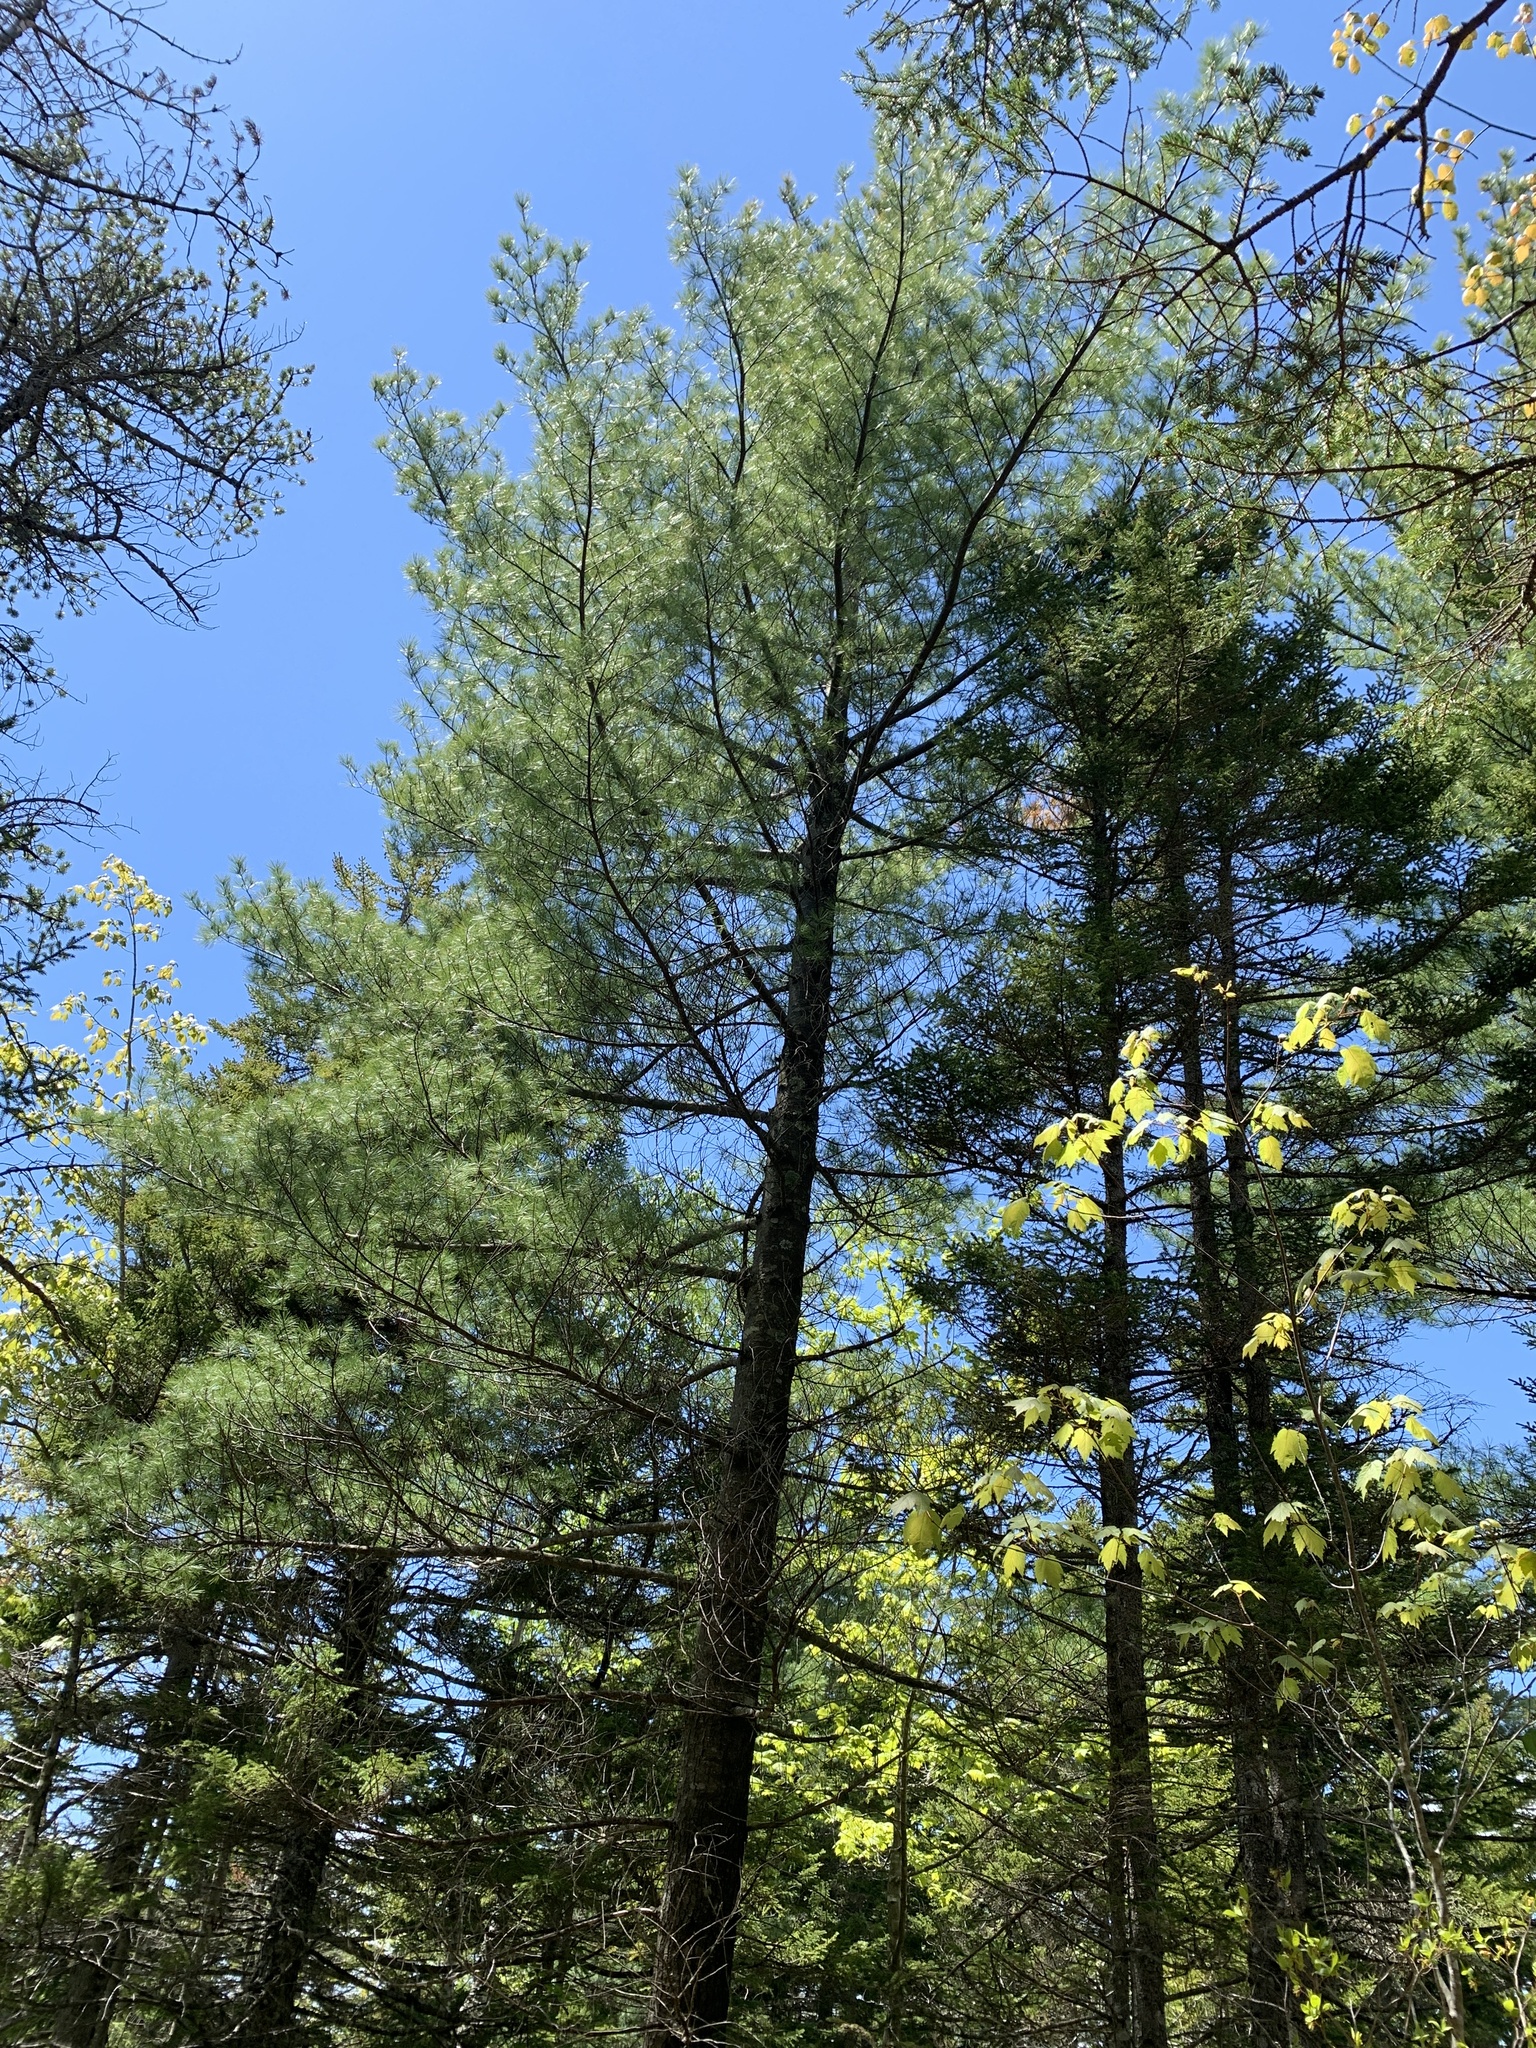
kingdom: Plantae
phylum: Tracheophyta
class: Pinopsida
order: Pinales
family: Pinaceae
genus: Pinus
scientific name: Pinus strobus
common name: Weymouth pine
